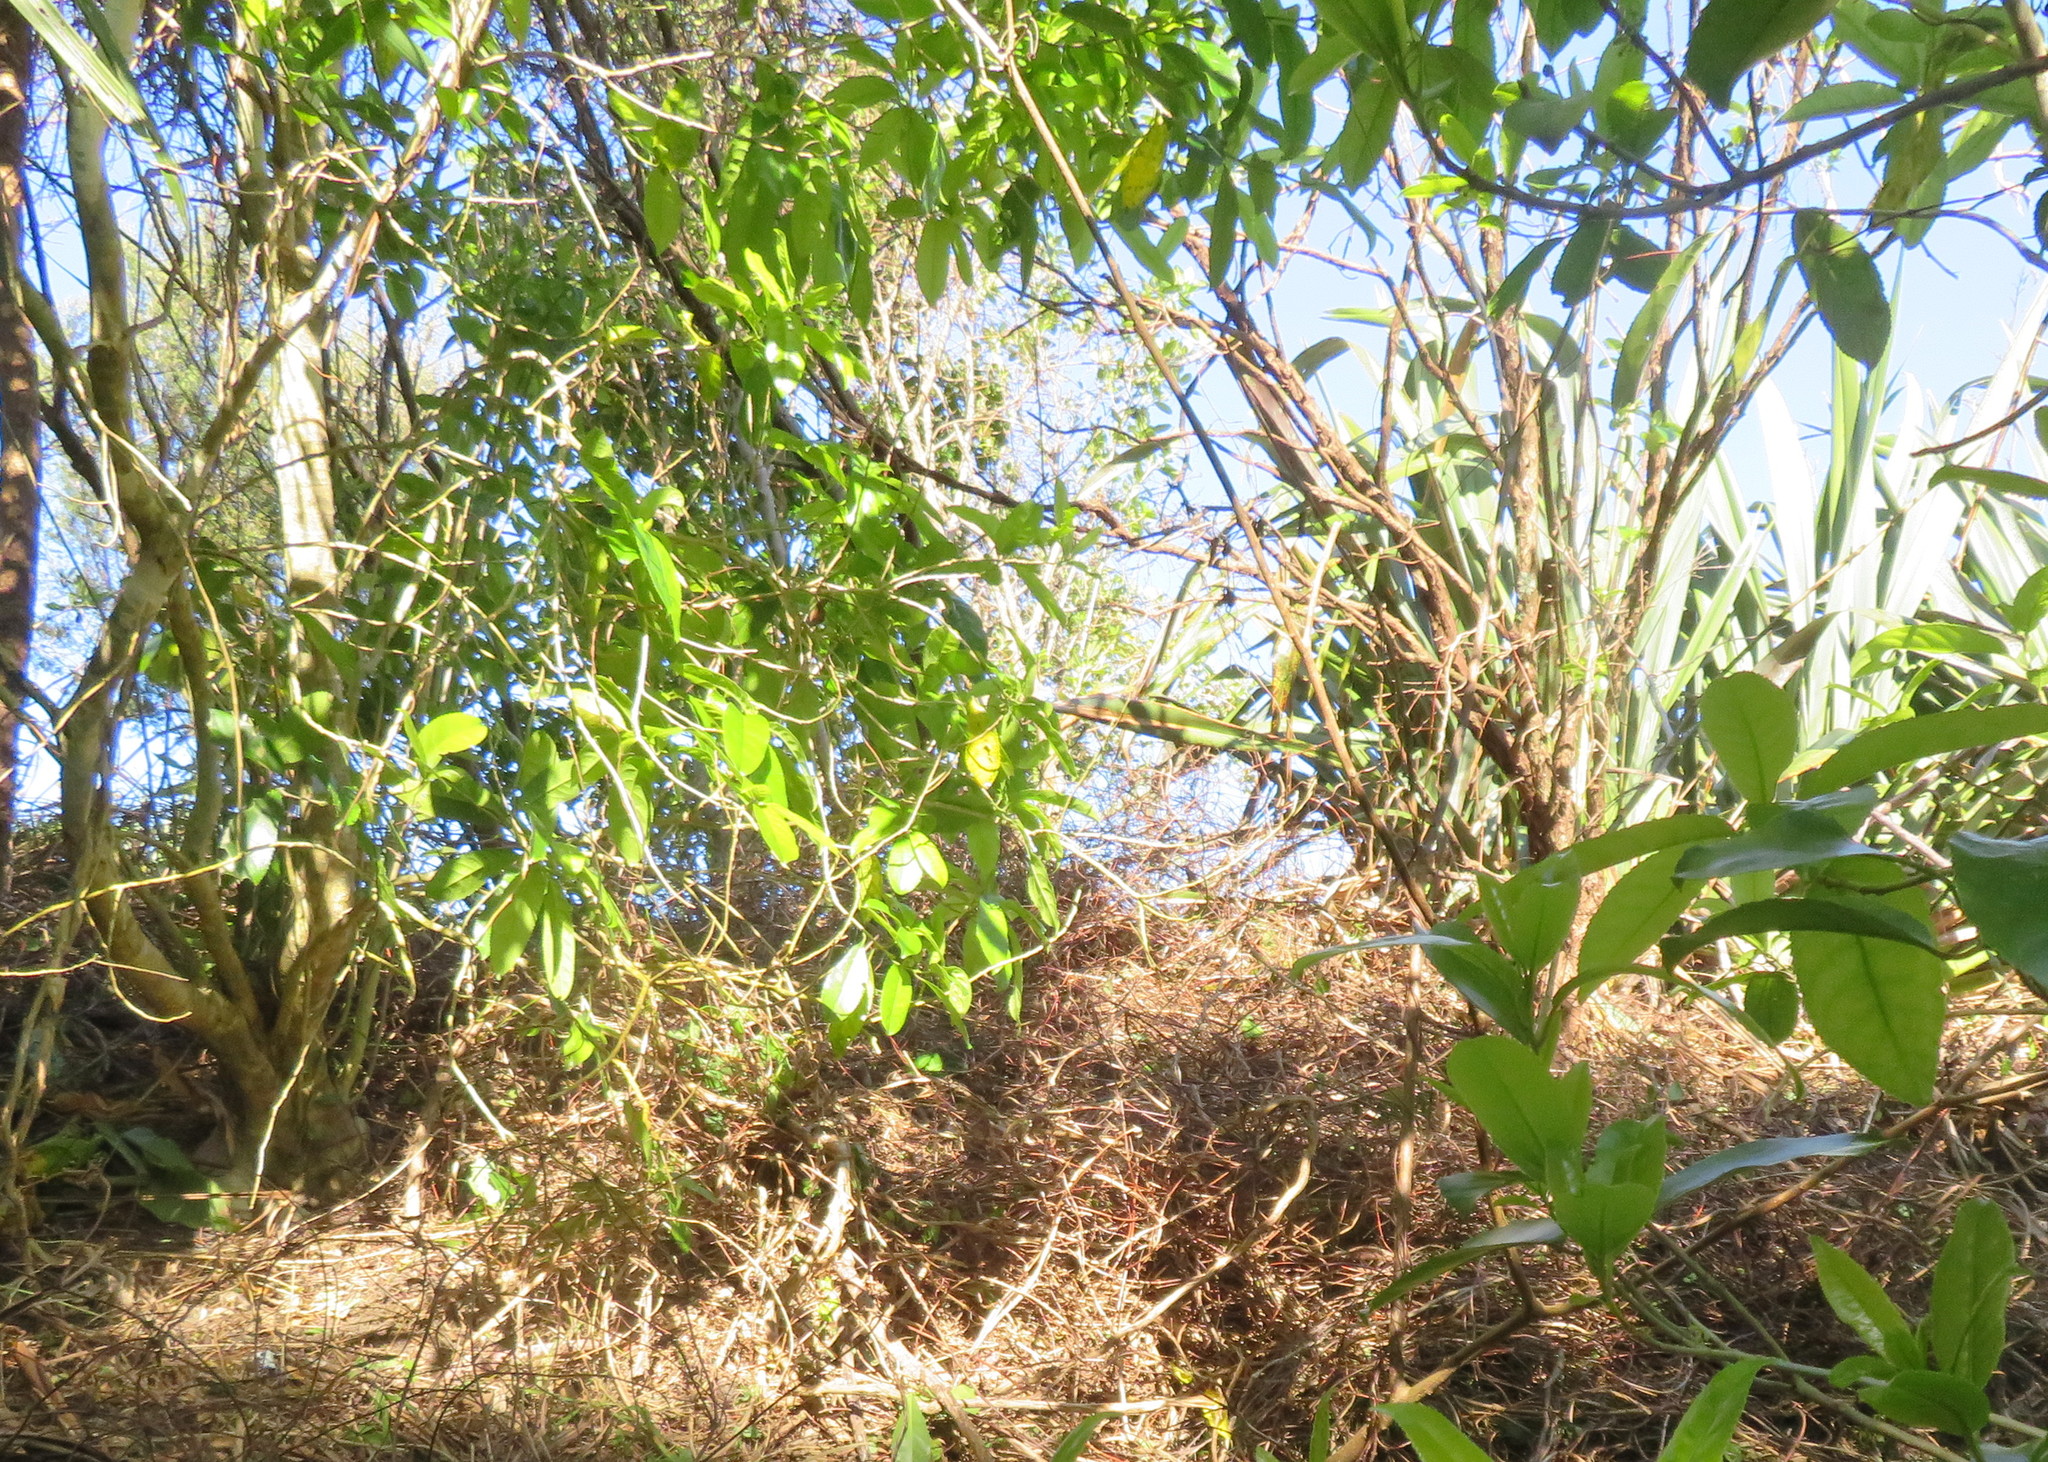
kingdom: Plantae
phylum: Tracheophyta
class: Magnoliopsida
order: Malpighiales
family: Violaceae
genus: Melicytus
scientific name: Melicytus ramiflorus
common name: Mahoe
